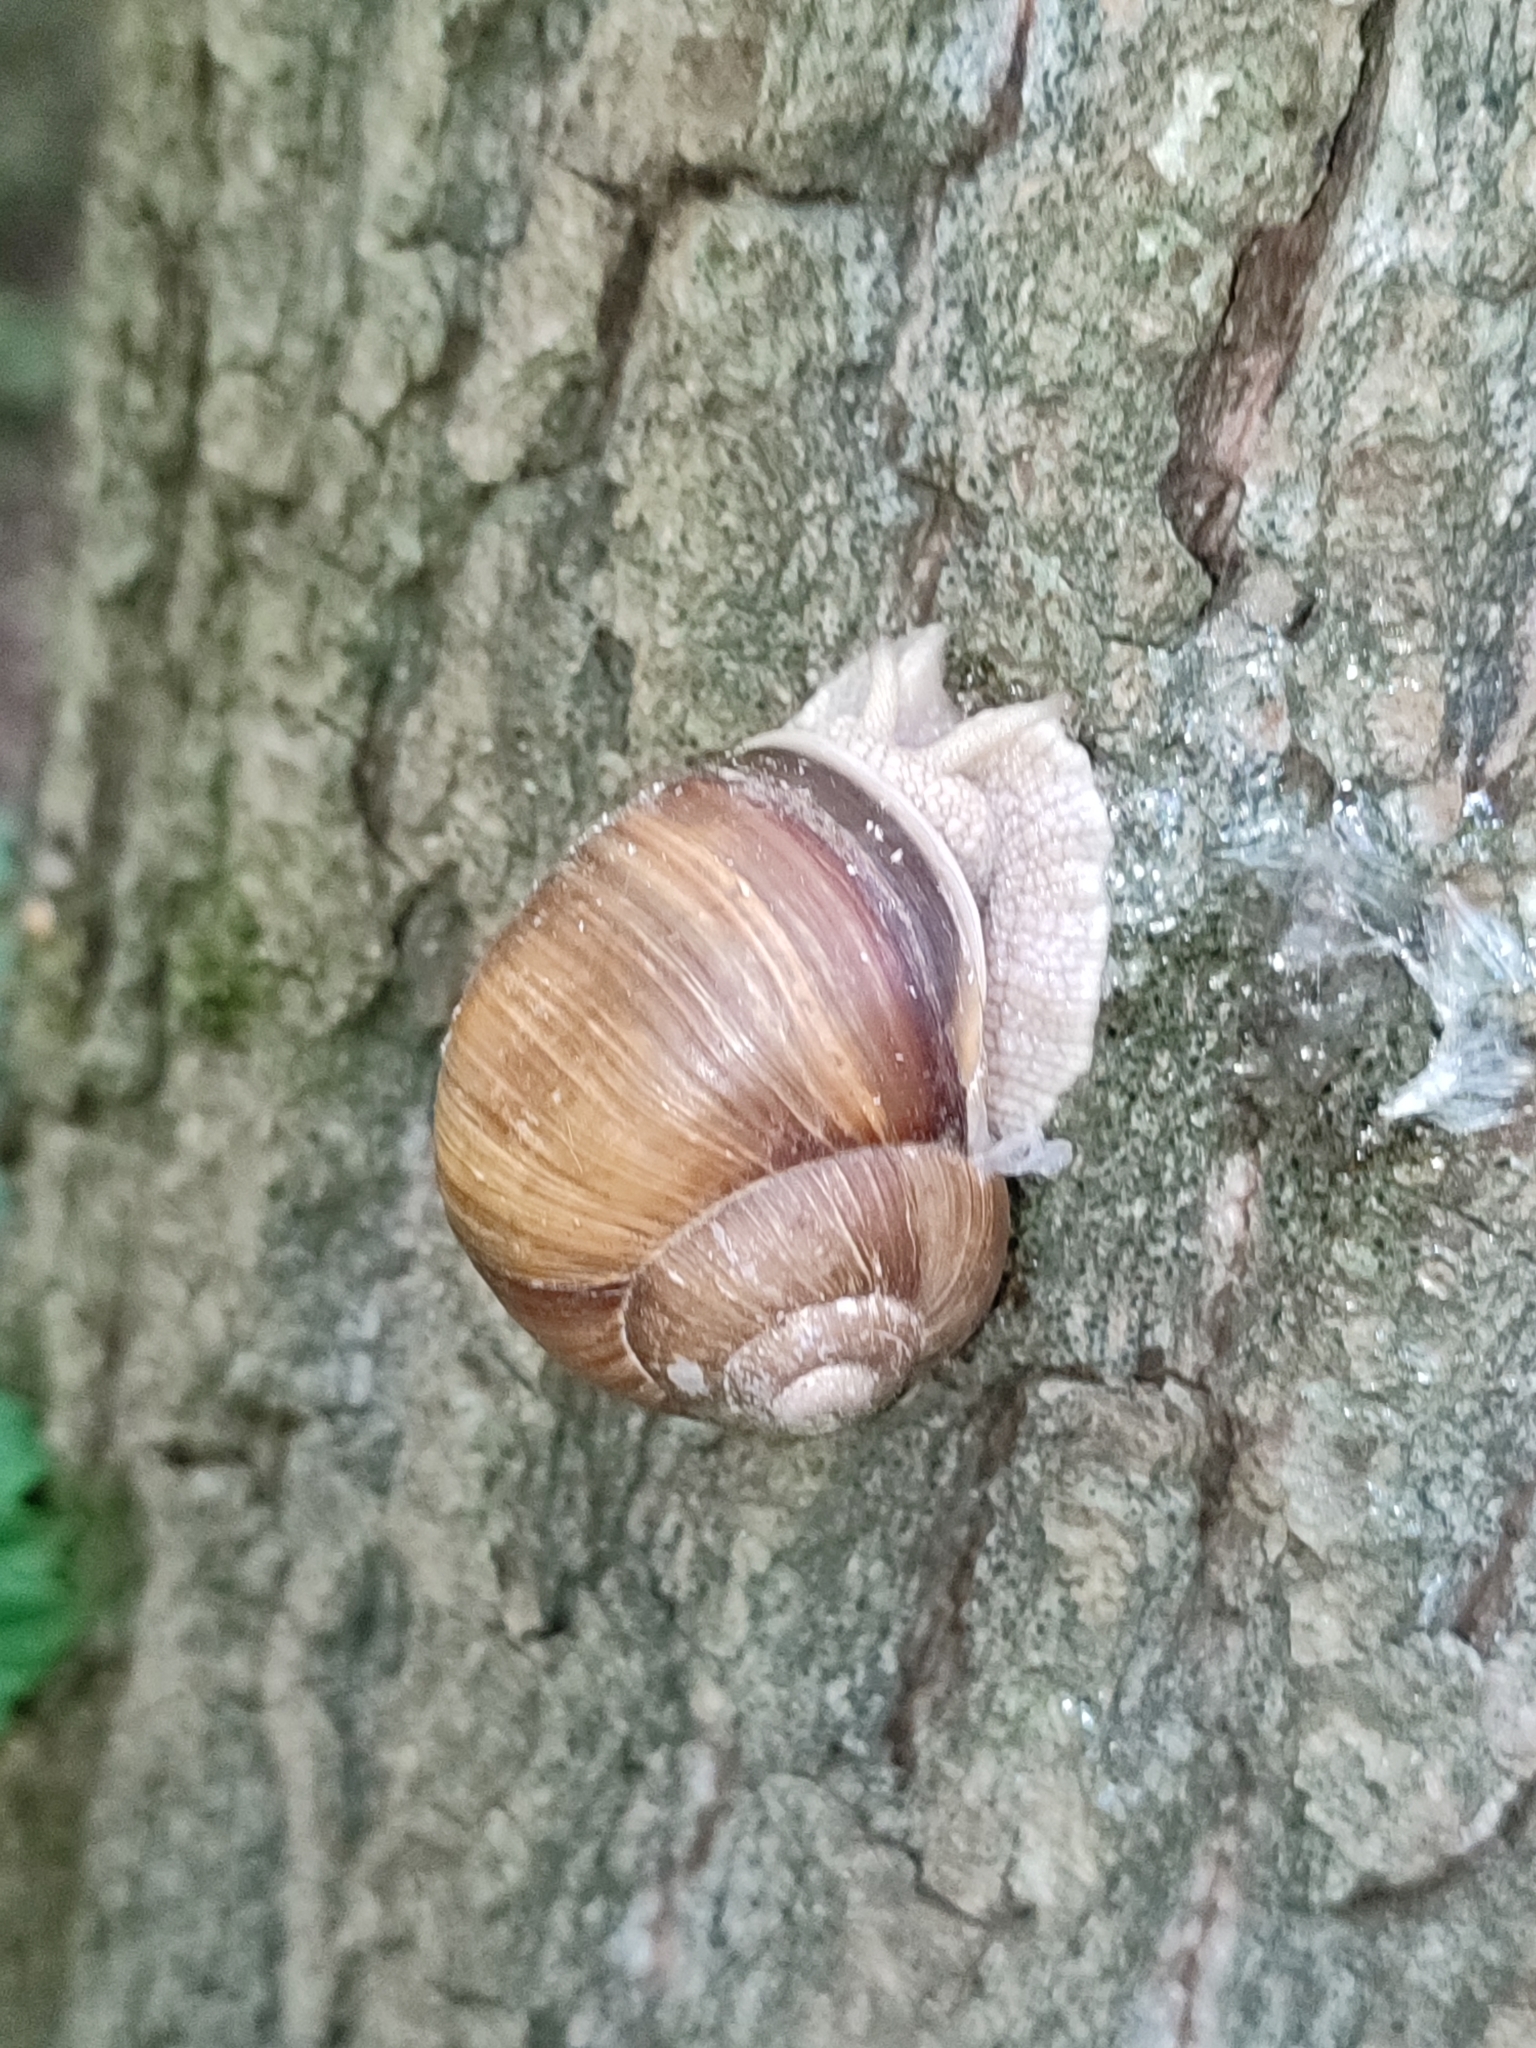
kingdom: Animalia
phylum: Mollusca
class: Gastropoda
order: Stylommatophora
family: Helicidae
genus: Helix
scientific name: Helix pomatia
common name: Roman snail
